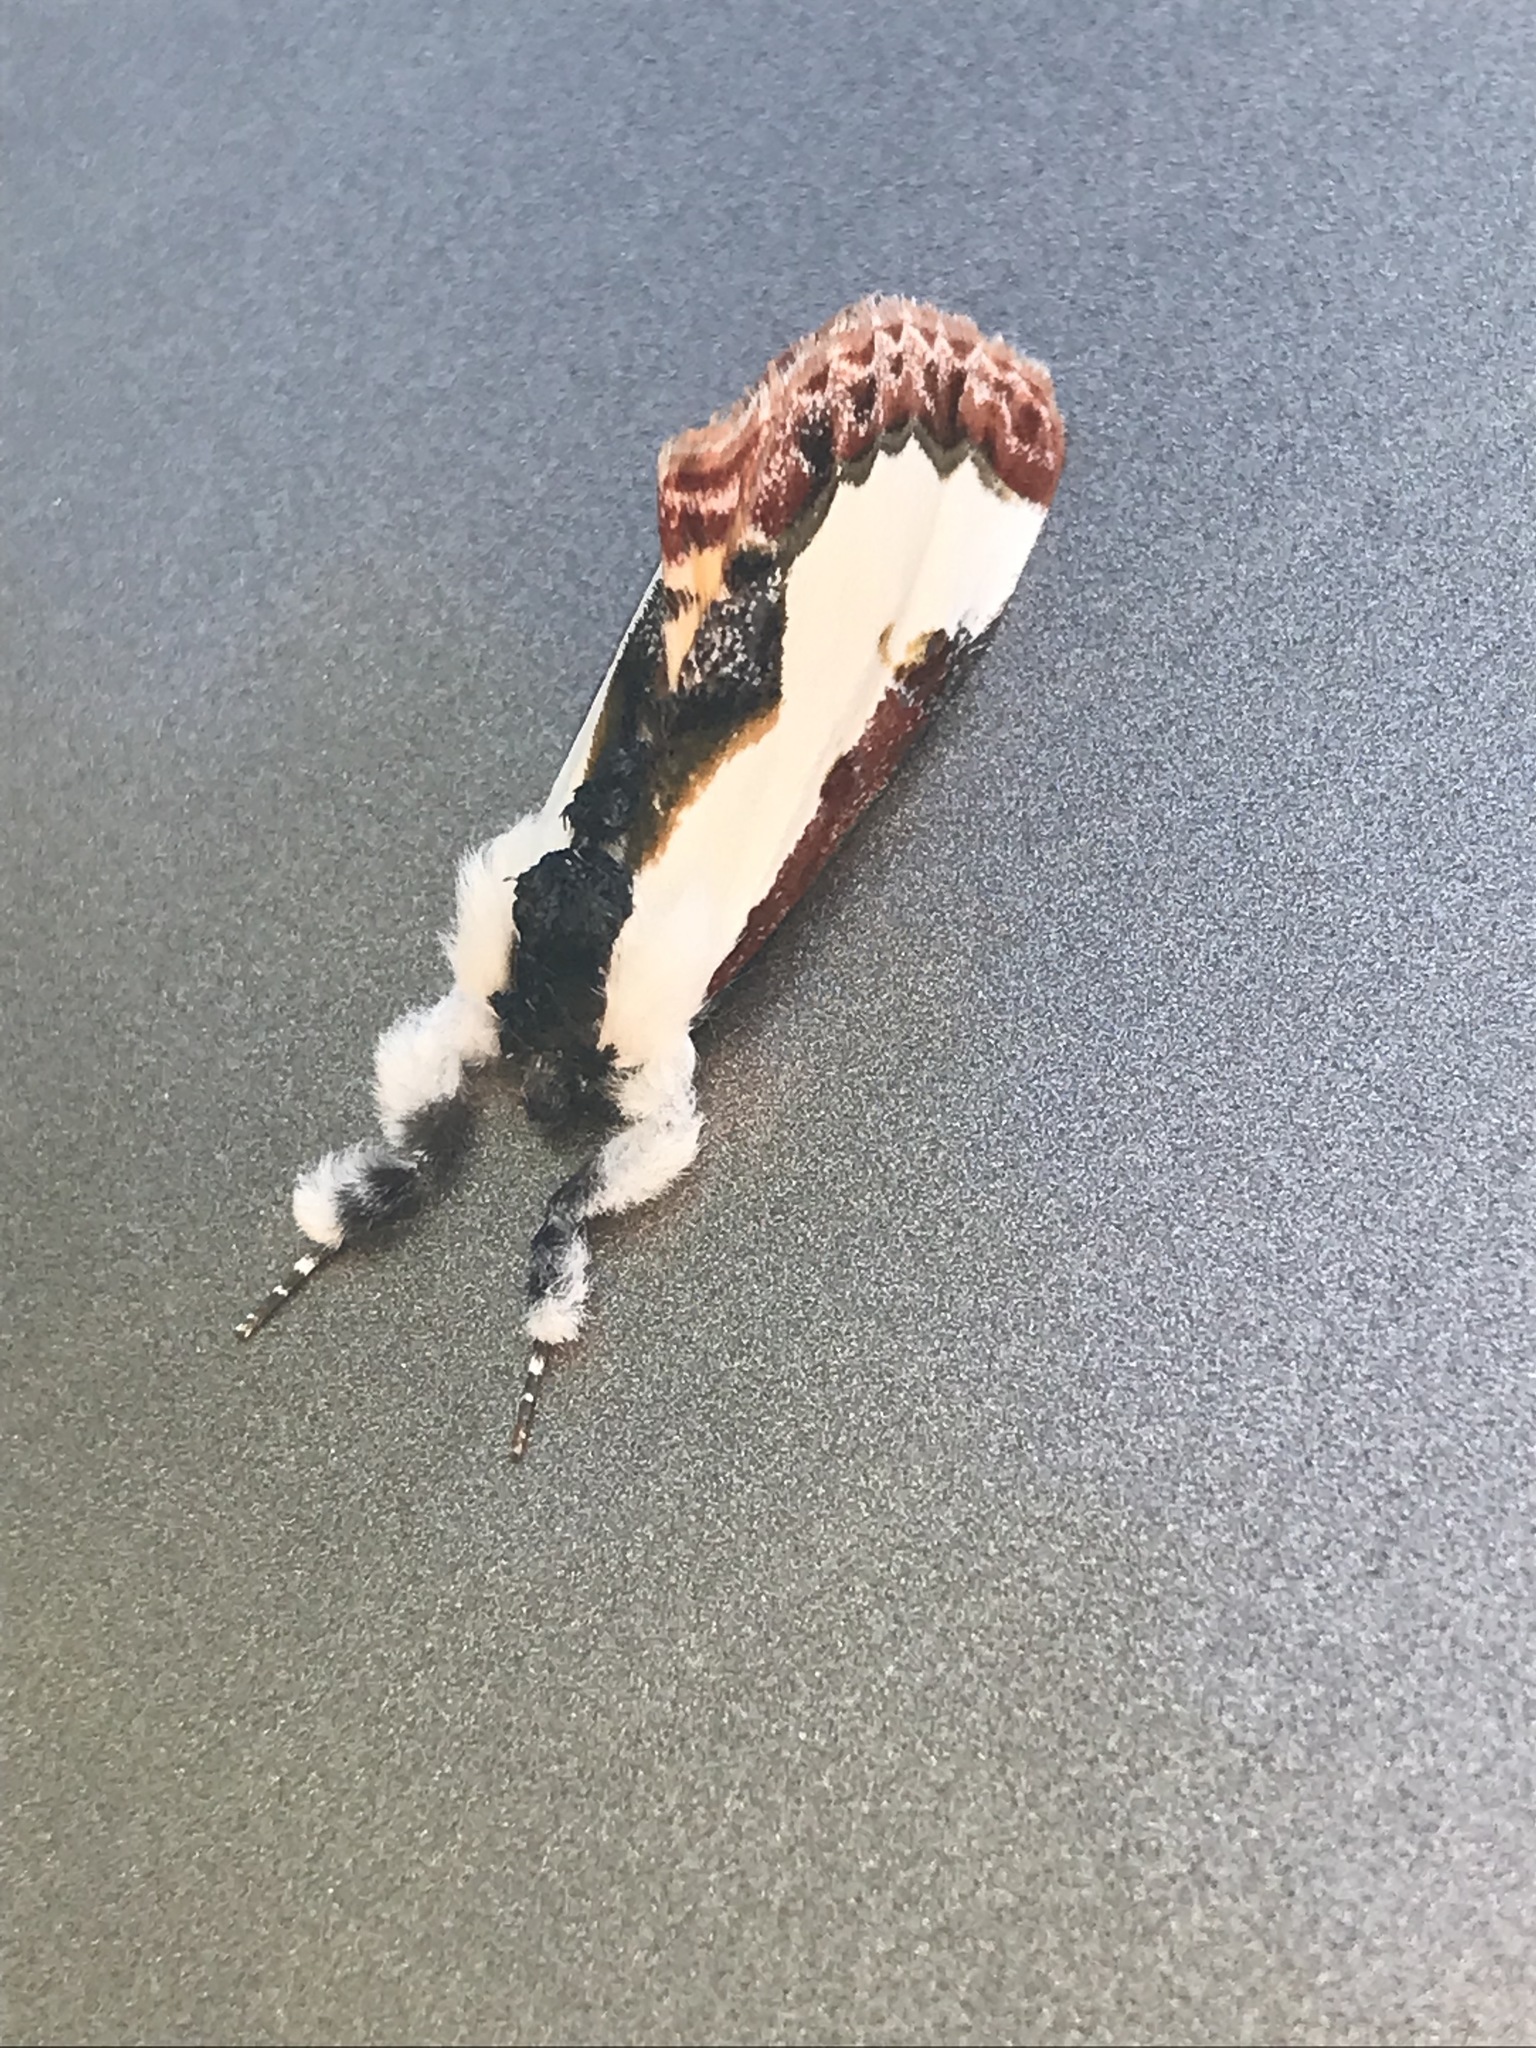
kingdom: Animalia
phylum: Arthropoda
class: Insecta
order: Lepidoptera
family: Noctuidae
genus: Eudryas
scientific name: Eudryas unio
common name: Pearly wood-nymph
